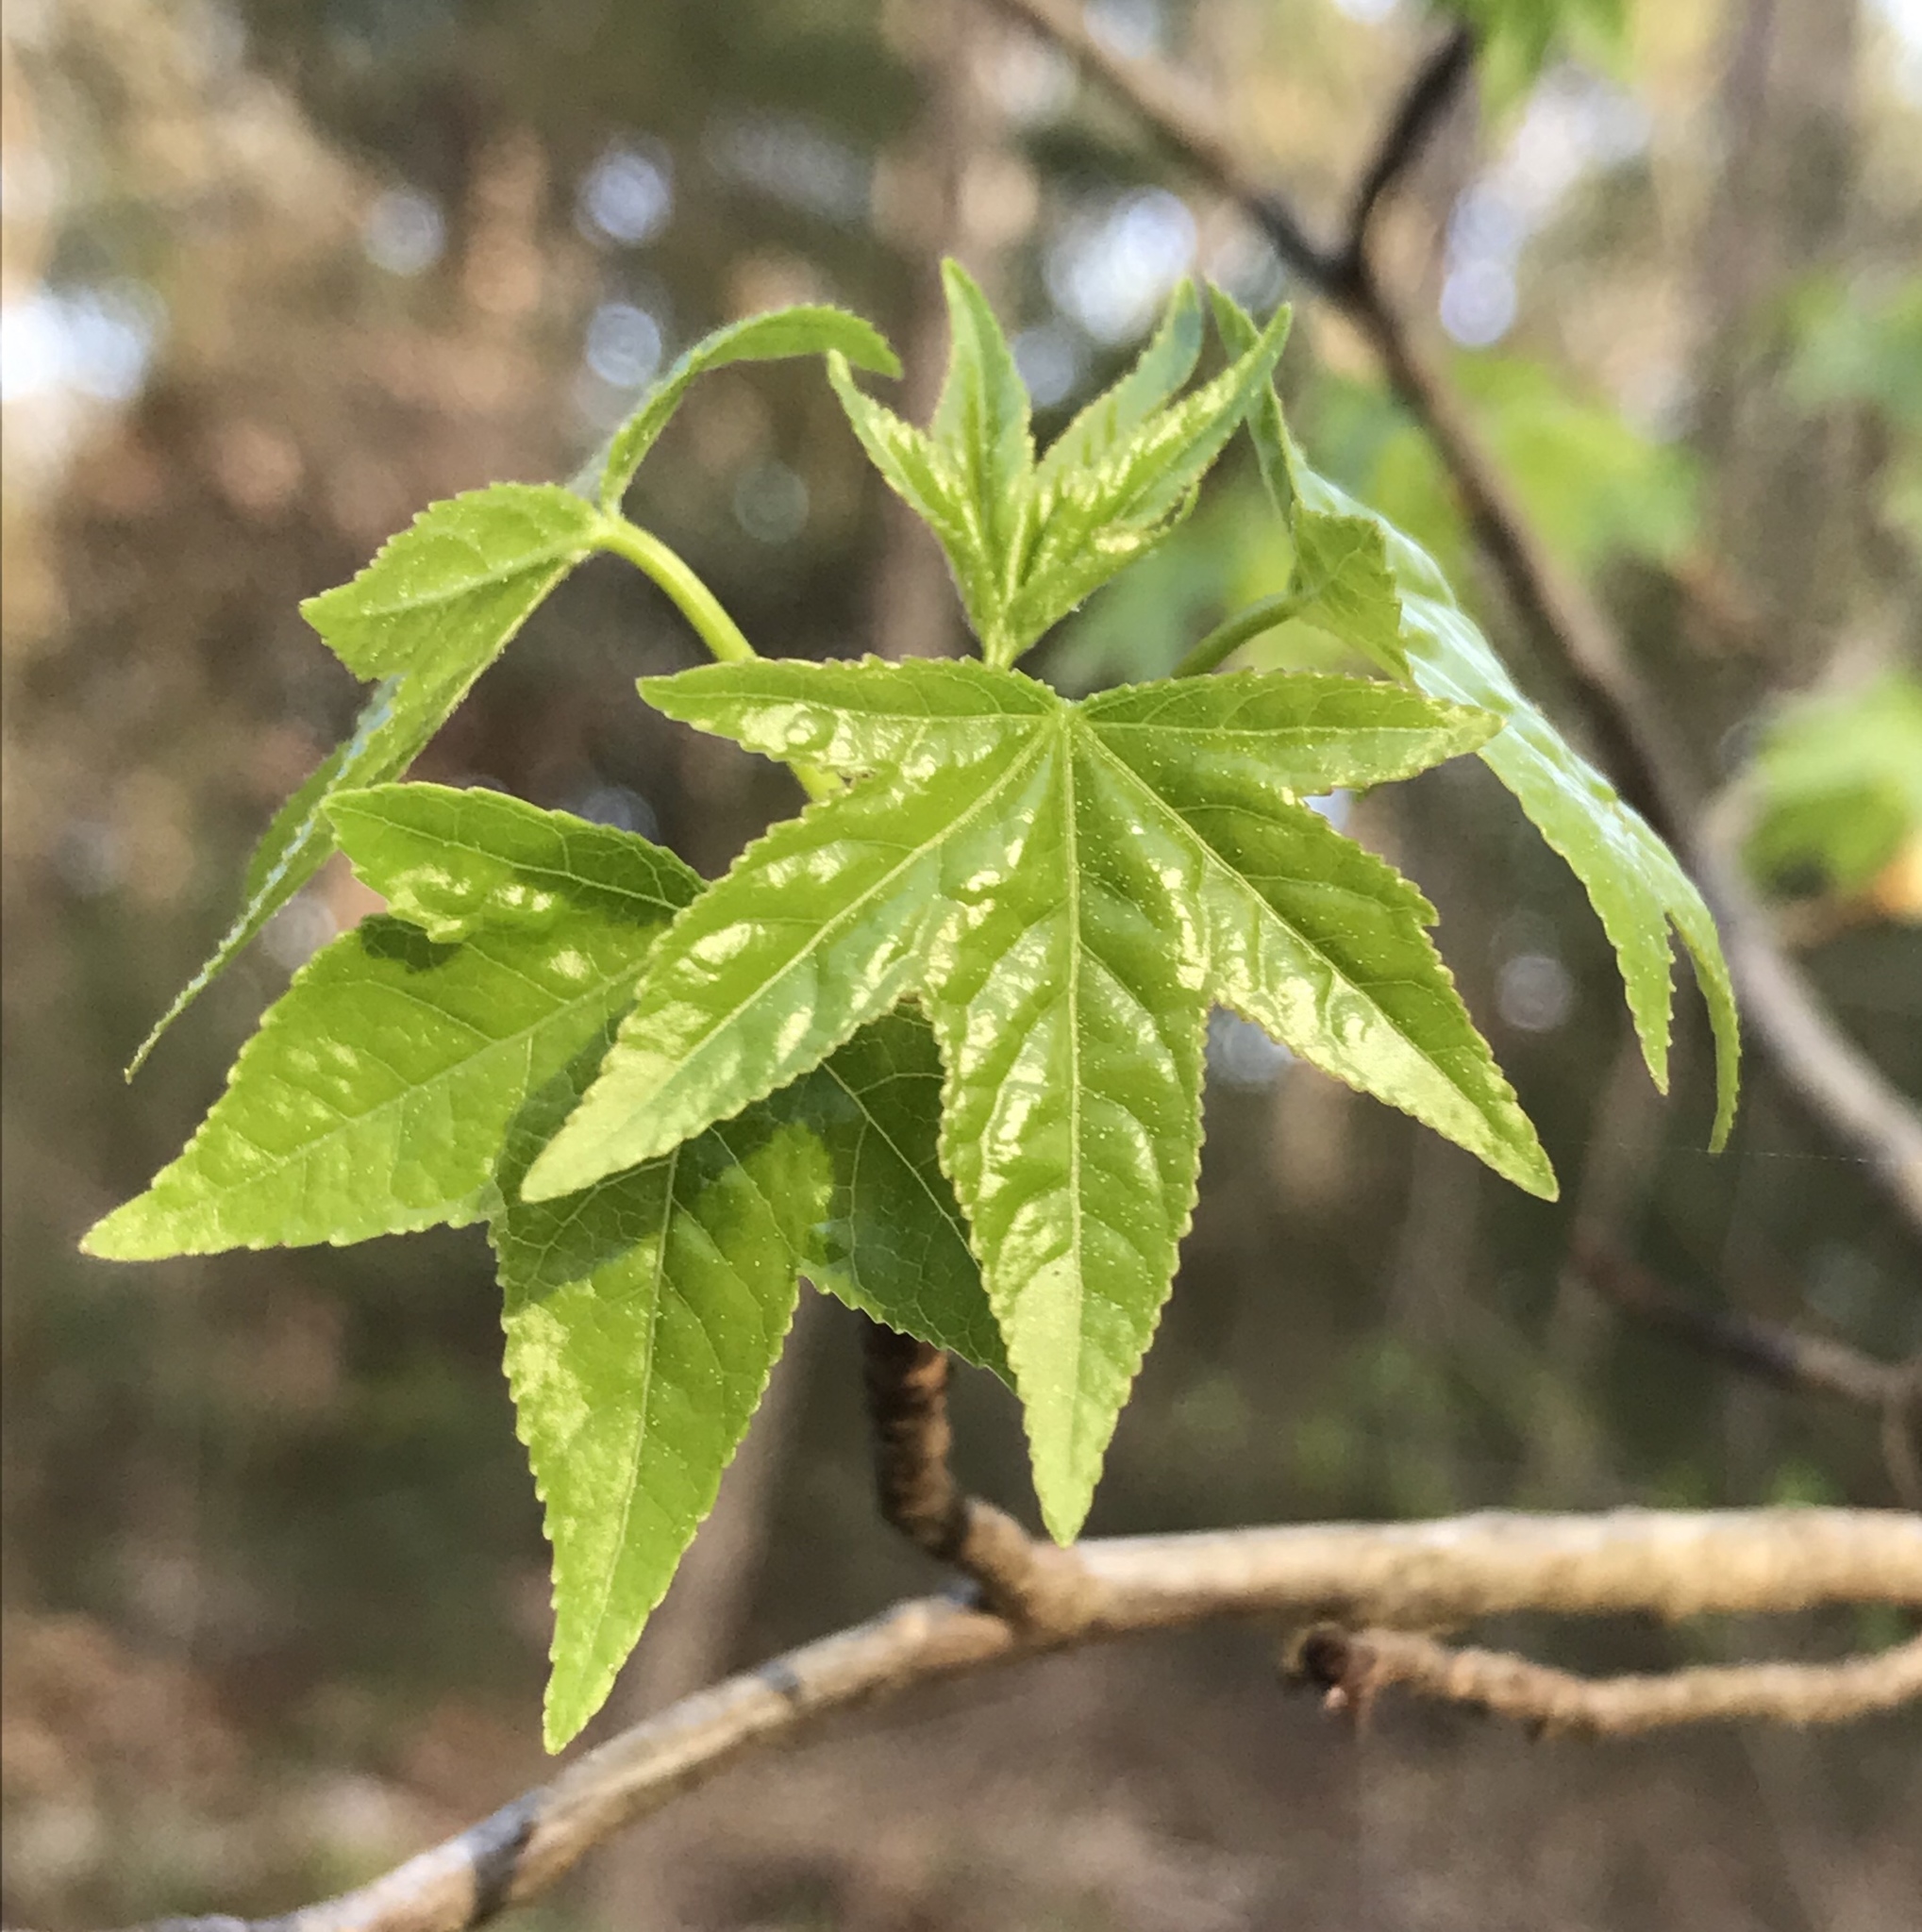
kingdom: Plantae
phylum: Tracheophyta
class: Magnoliopsida
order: Saxifragales
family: Altingiaceae
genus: Liquidambar
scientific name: Liquidambar styraciflua
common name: Sweet gum
